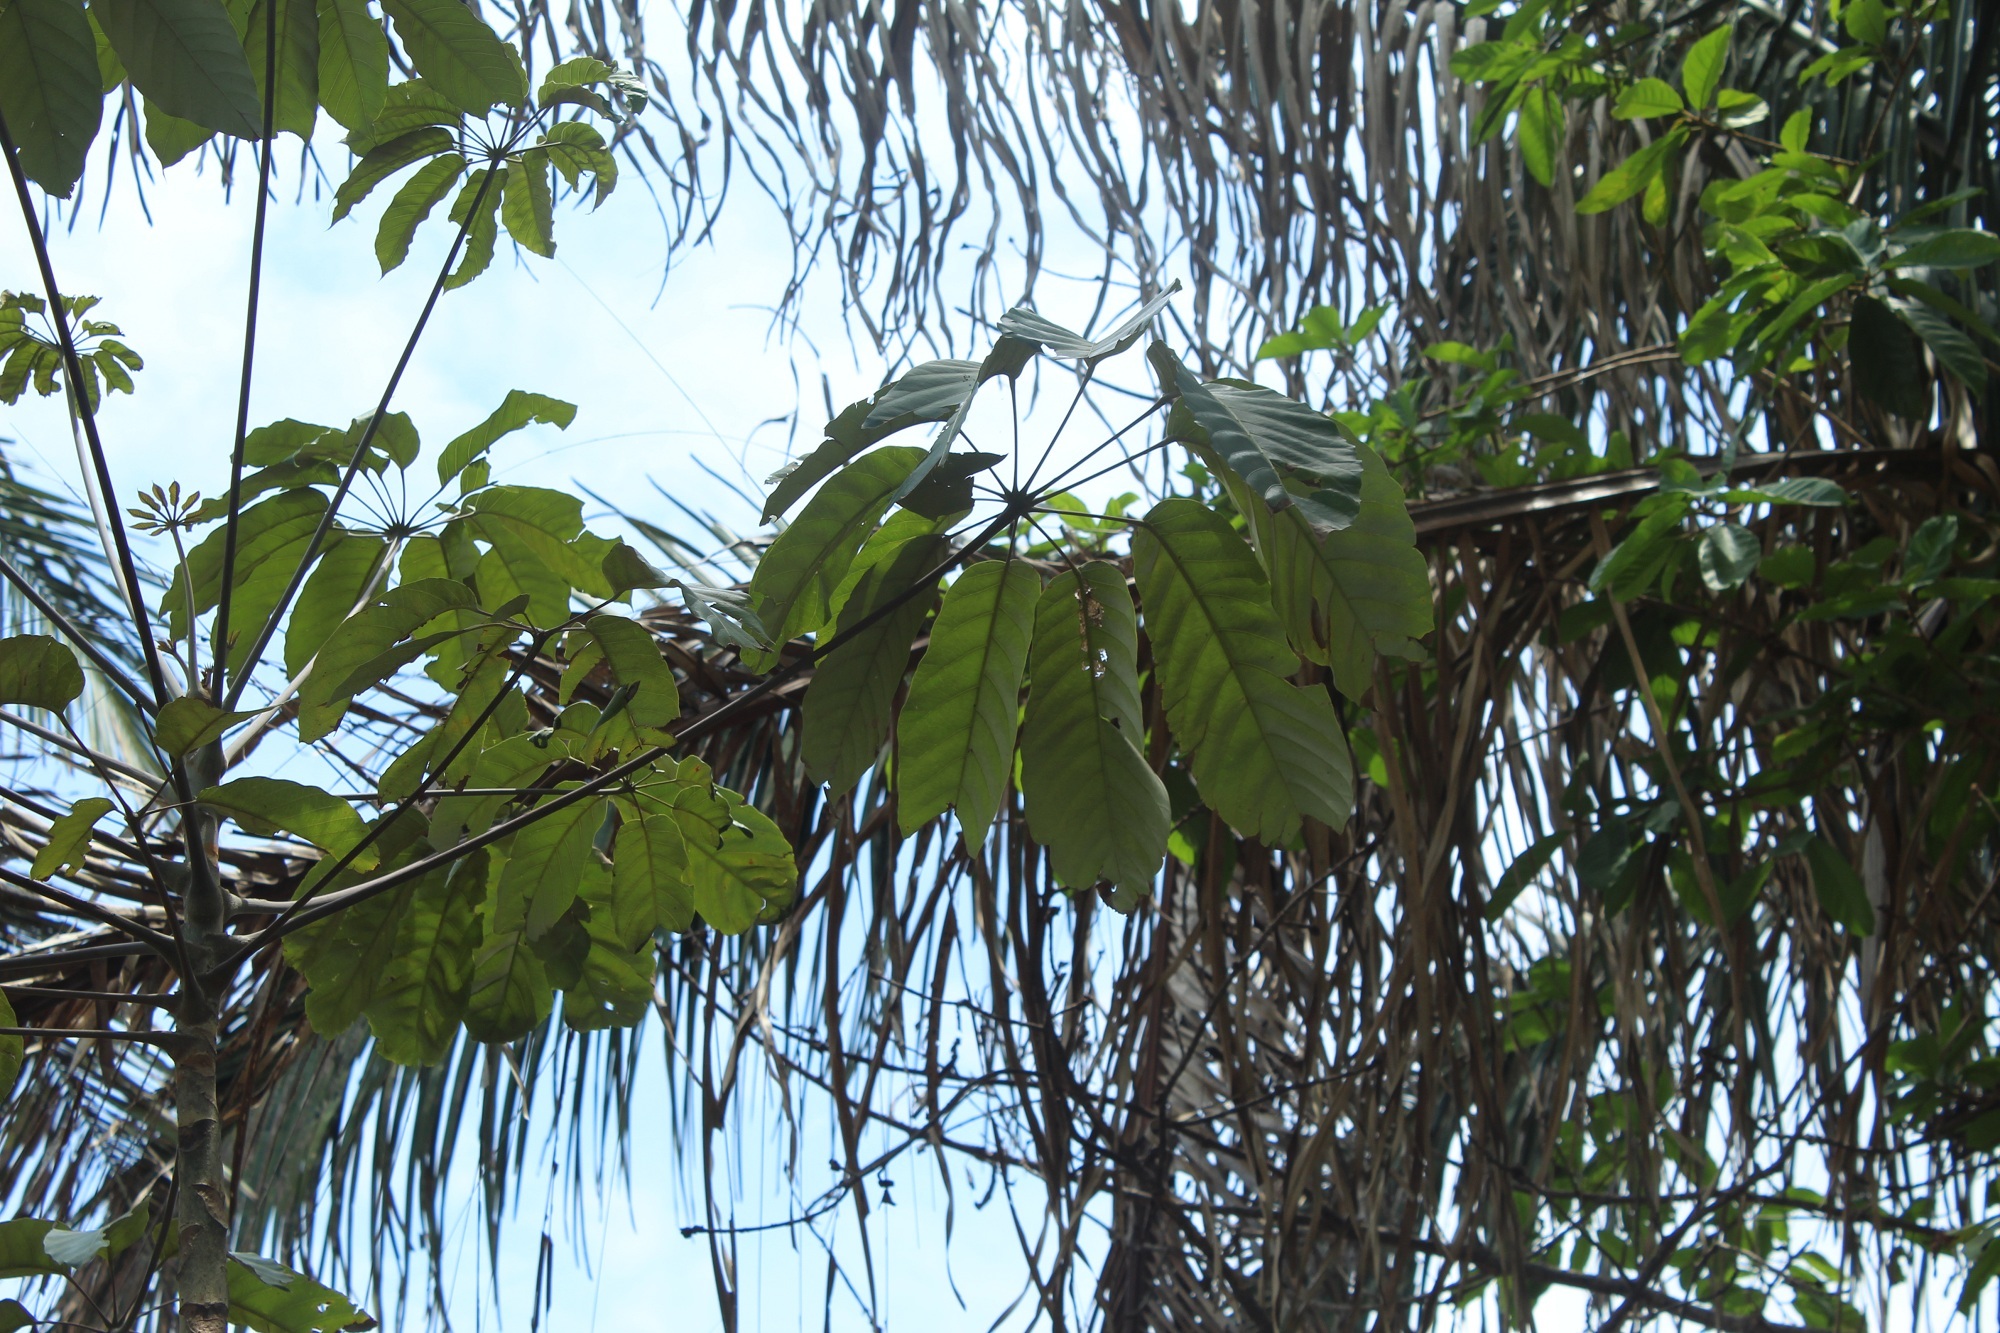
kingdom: Plantae
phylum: Tracheophyta
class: Magnoliopsida
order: Apiales
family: Araliaceae
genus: Didymopanax
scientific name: Didymopanax morototoni
